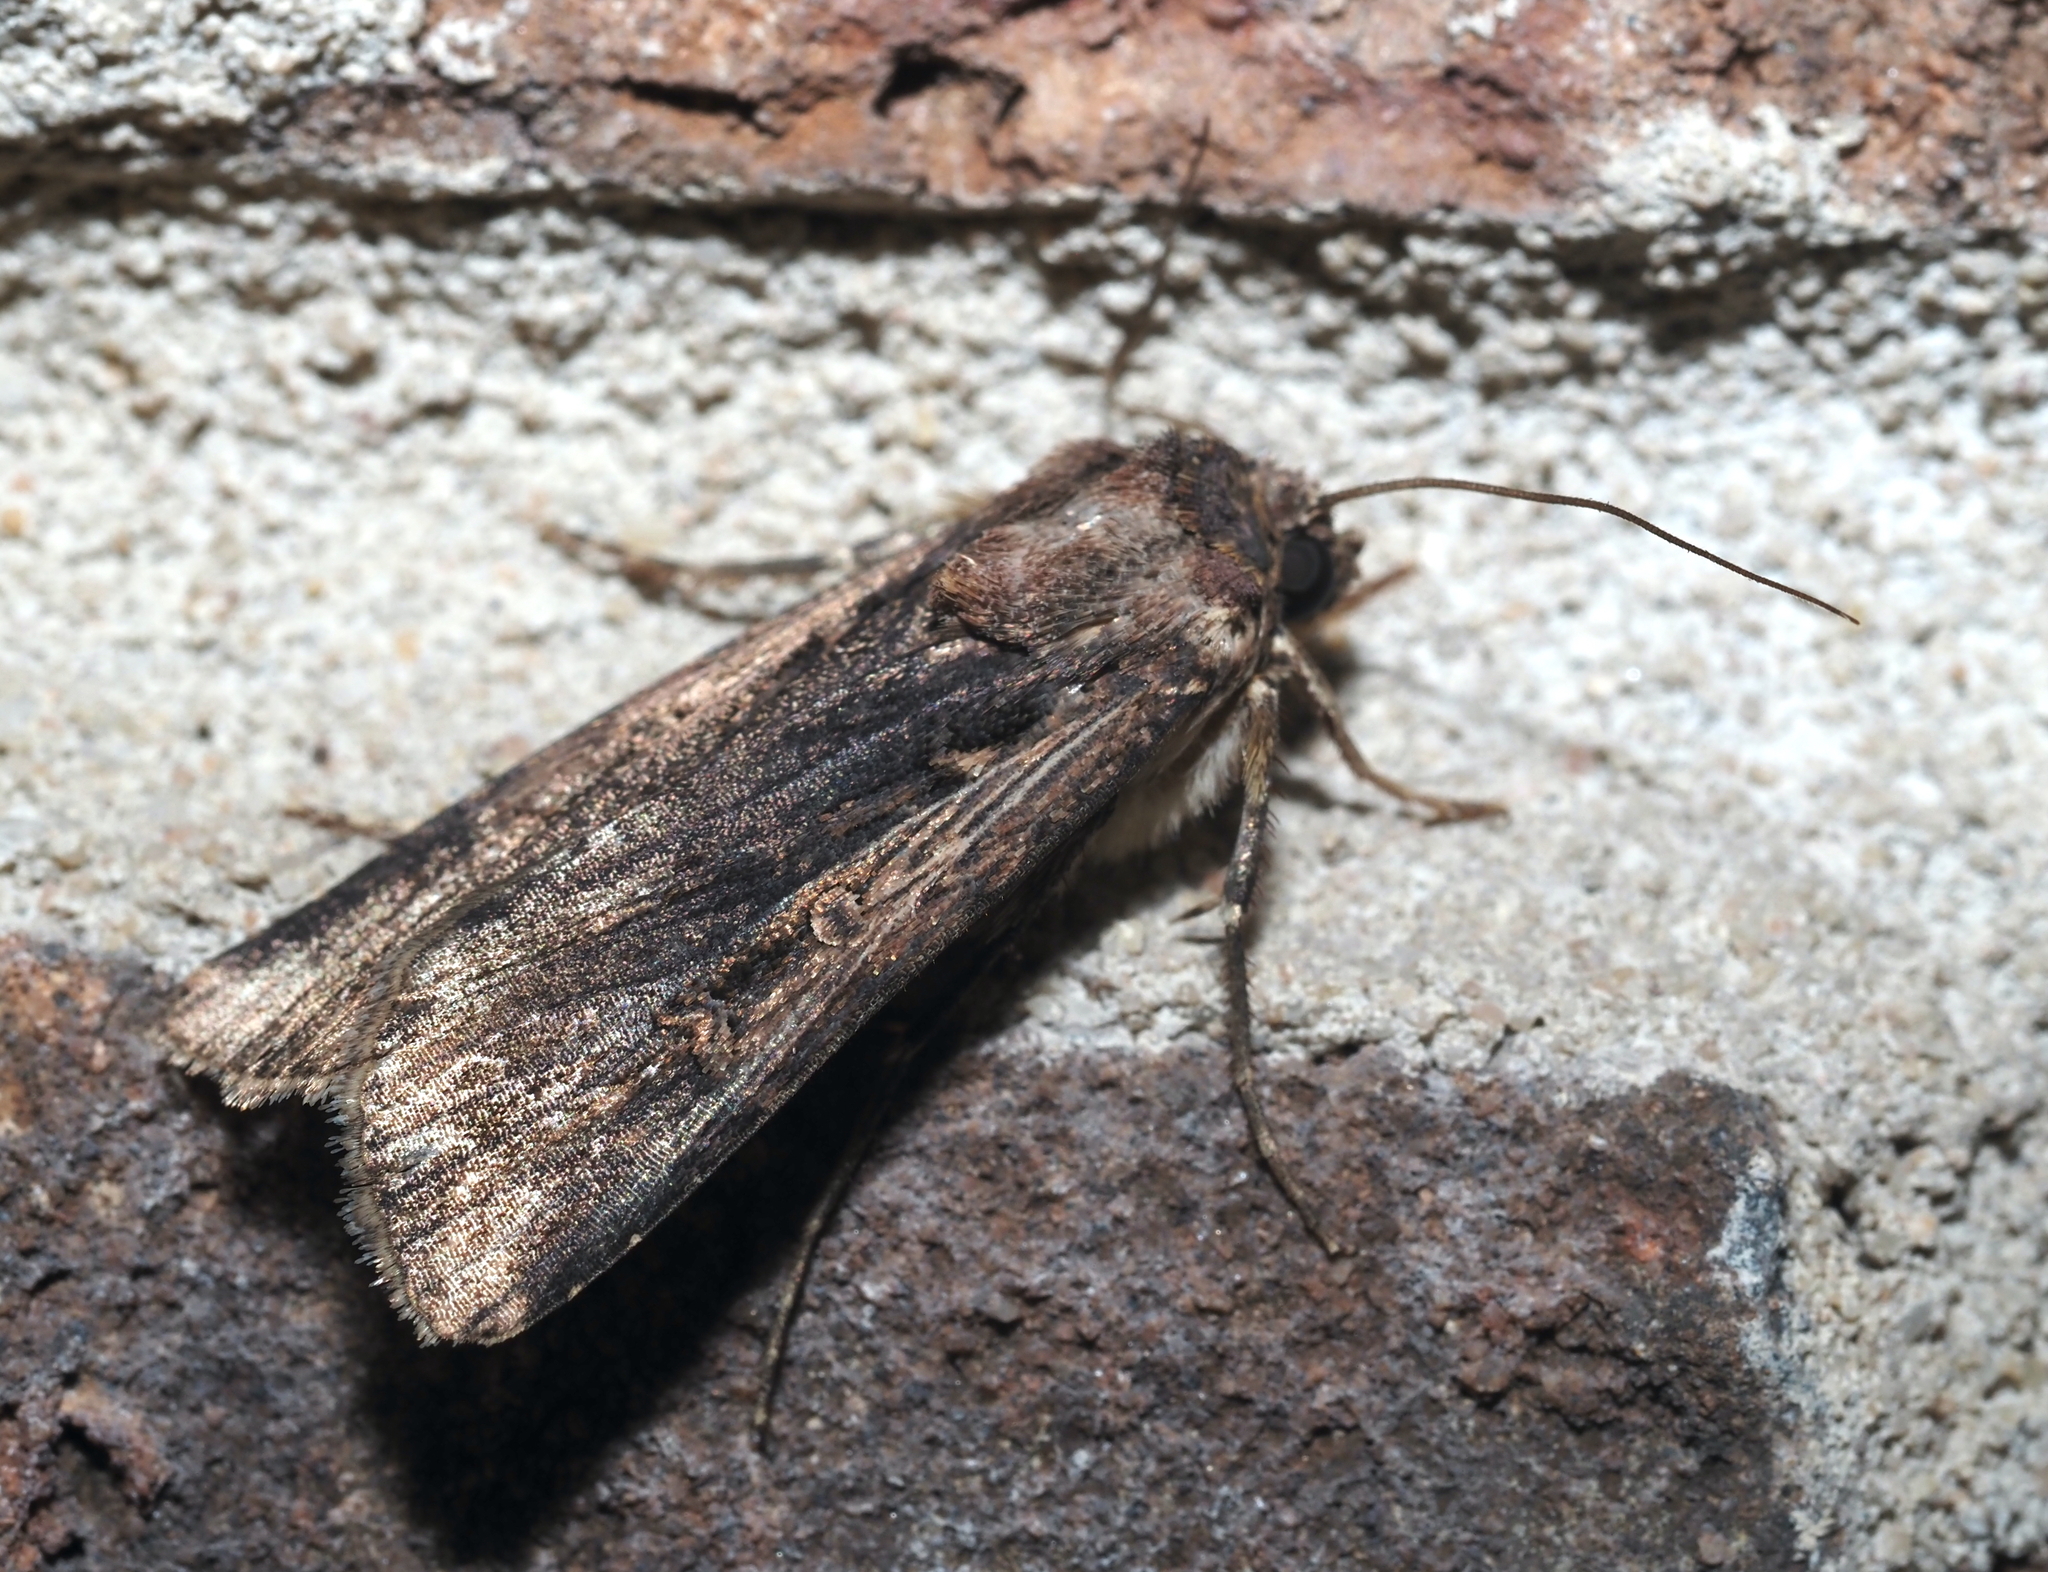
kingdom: Animalia
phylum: Arthropoda
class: Insecta
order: Lepidoptera
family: Noctuidae
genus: Feltia
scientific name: Feltia subterranea
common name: Granulate cutworm
